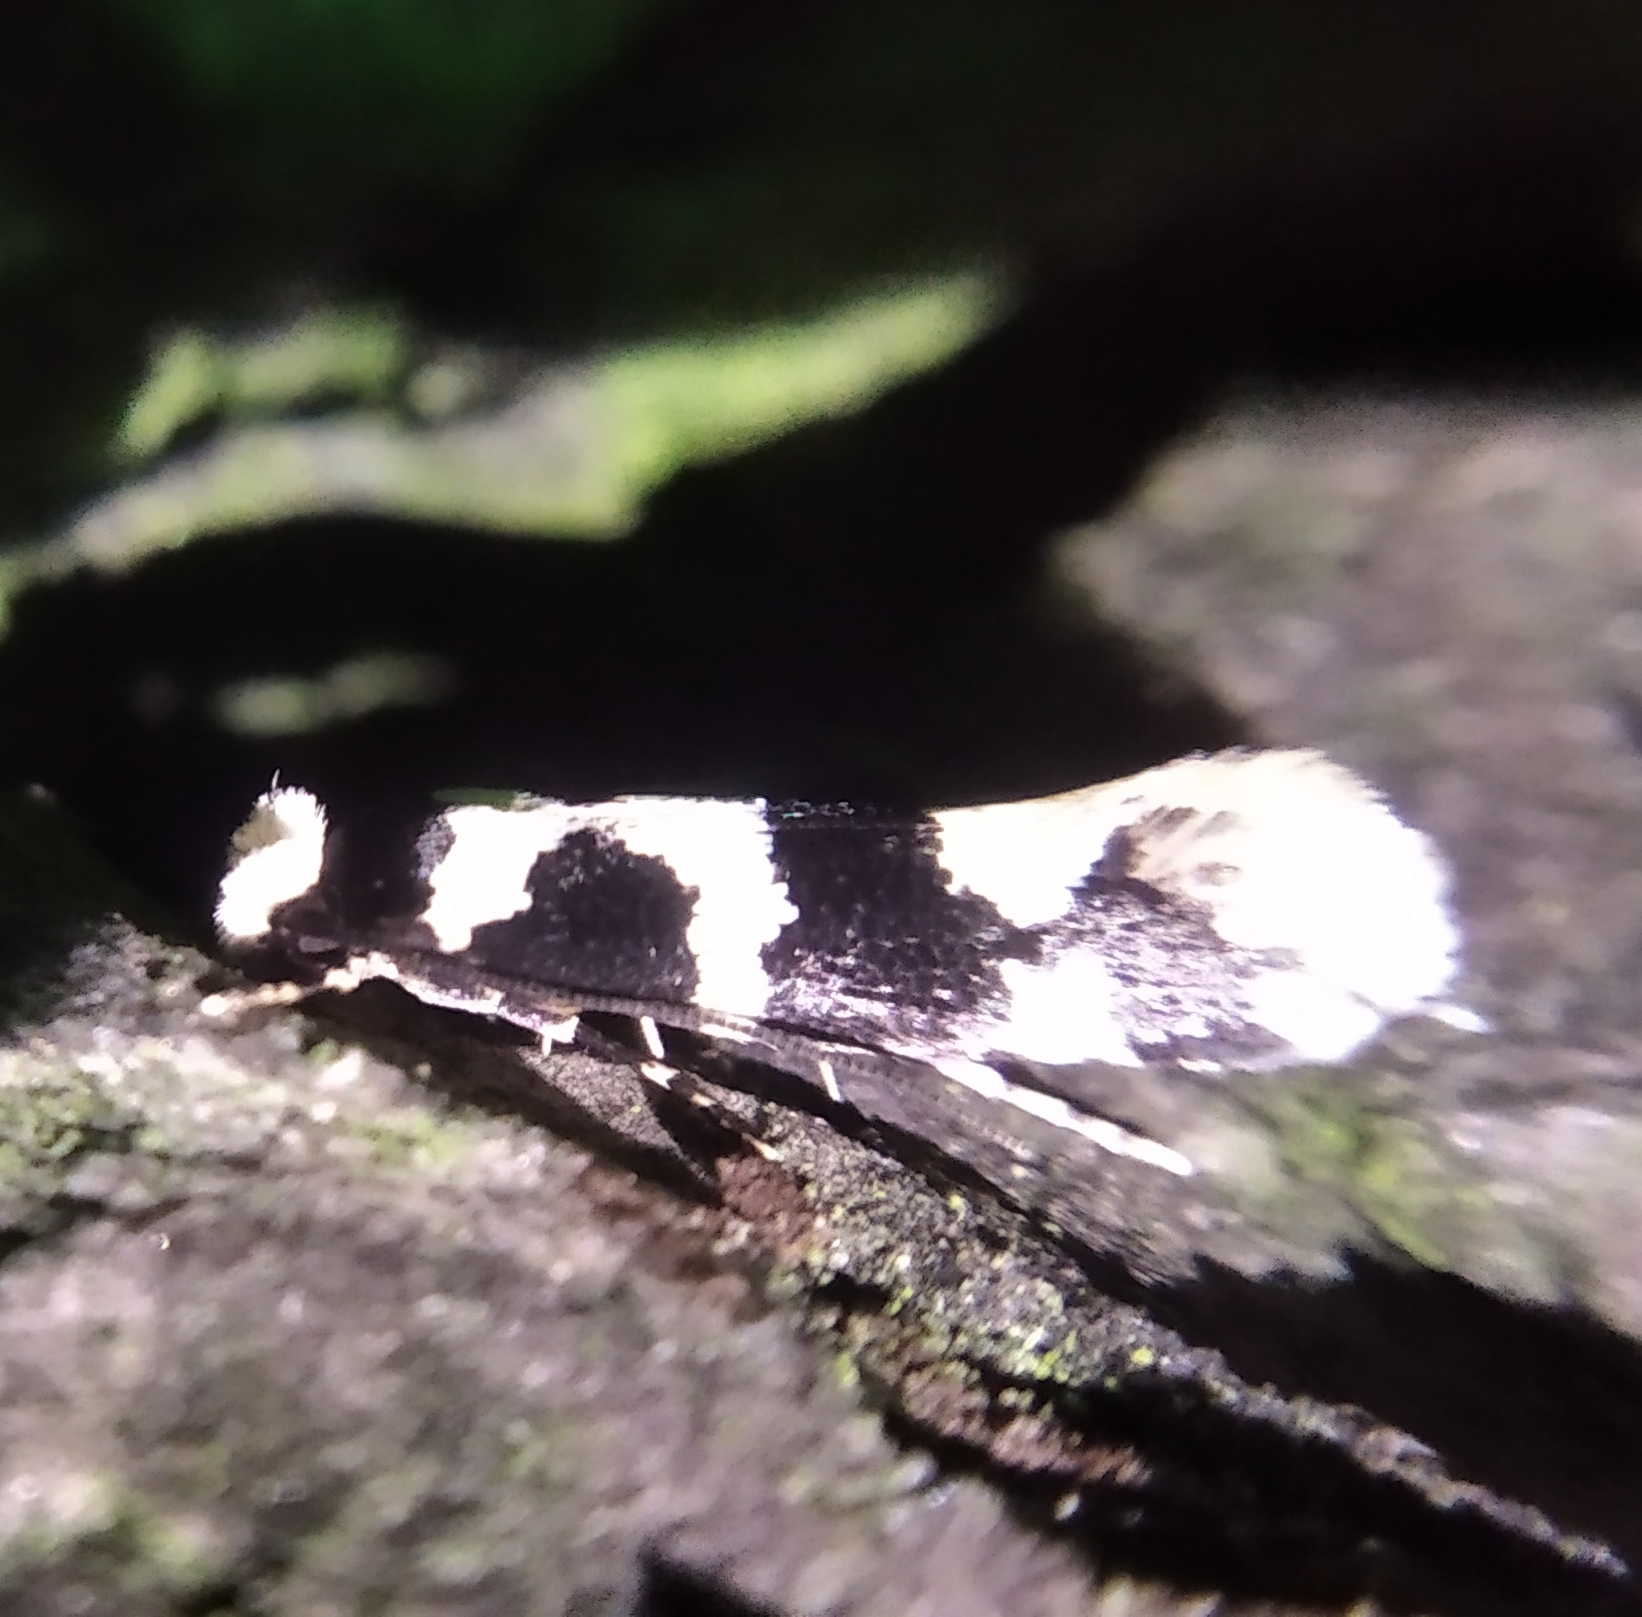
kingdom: Animalia
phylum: Arthropoda
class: Insecta
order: Lepidoptera
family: Tineidae
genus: Neurothaumasia
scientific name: Neurothaumasia ankerella
